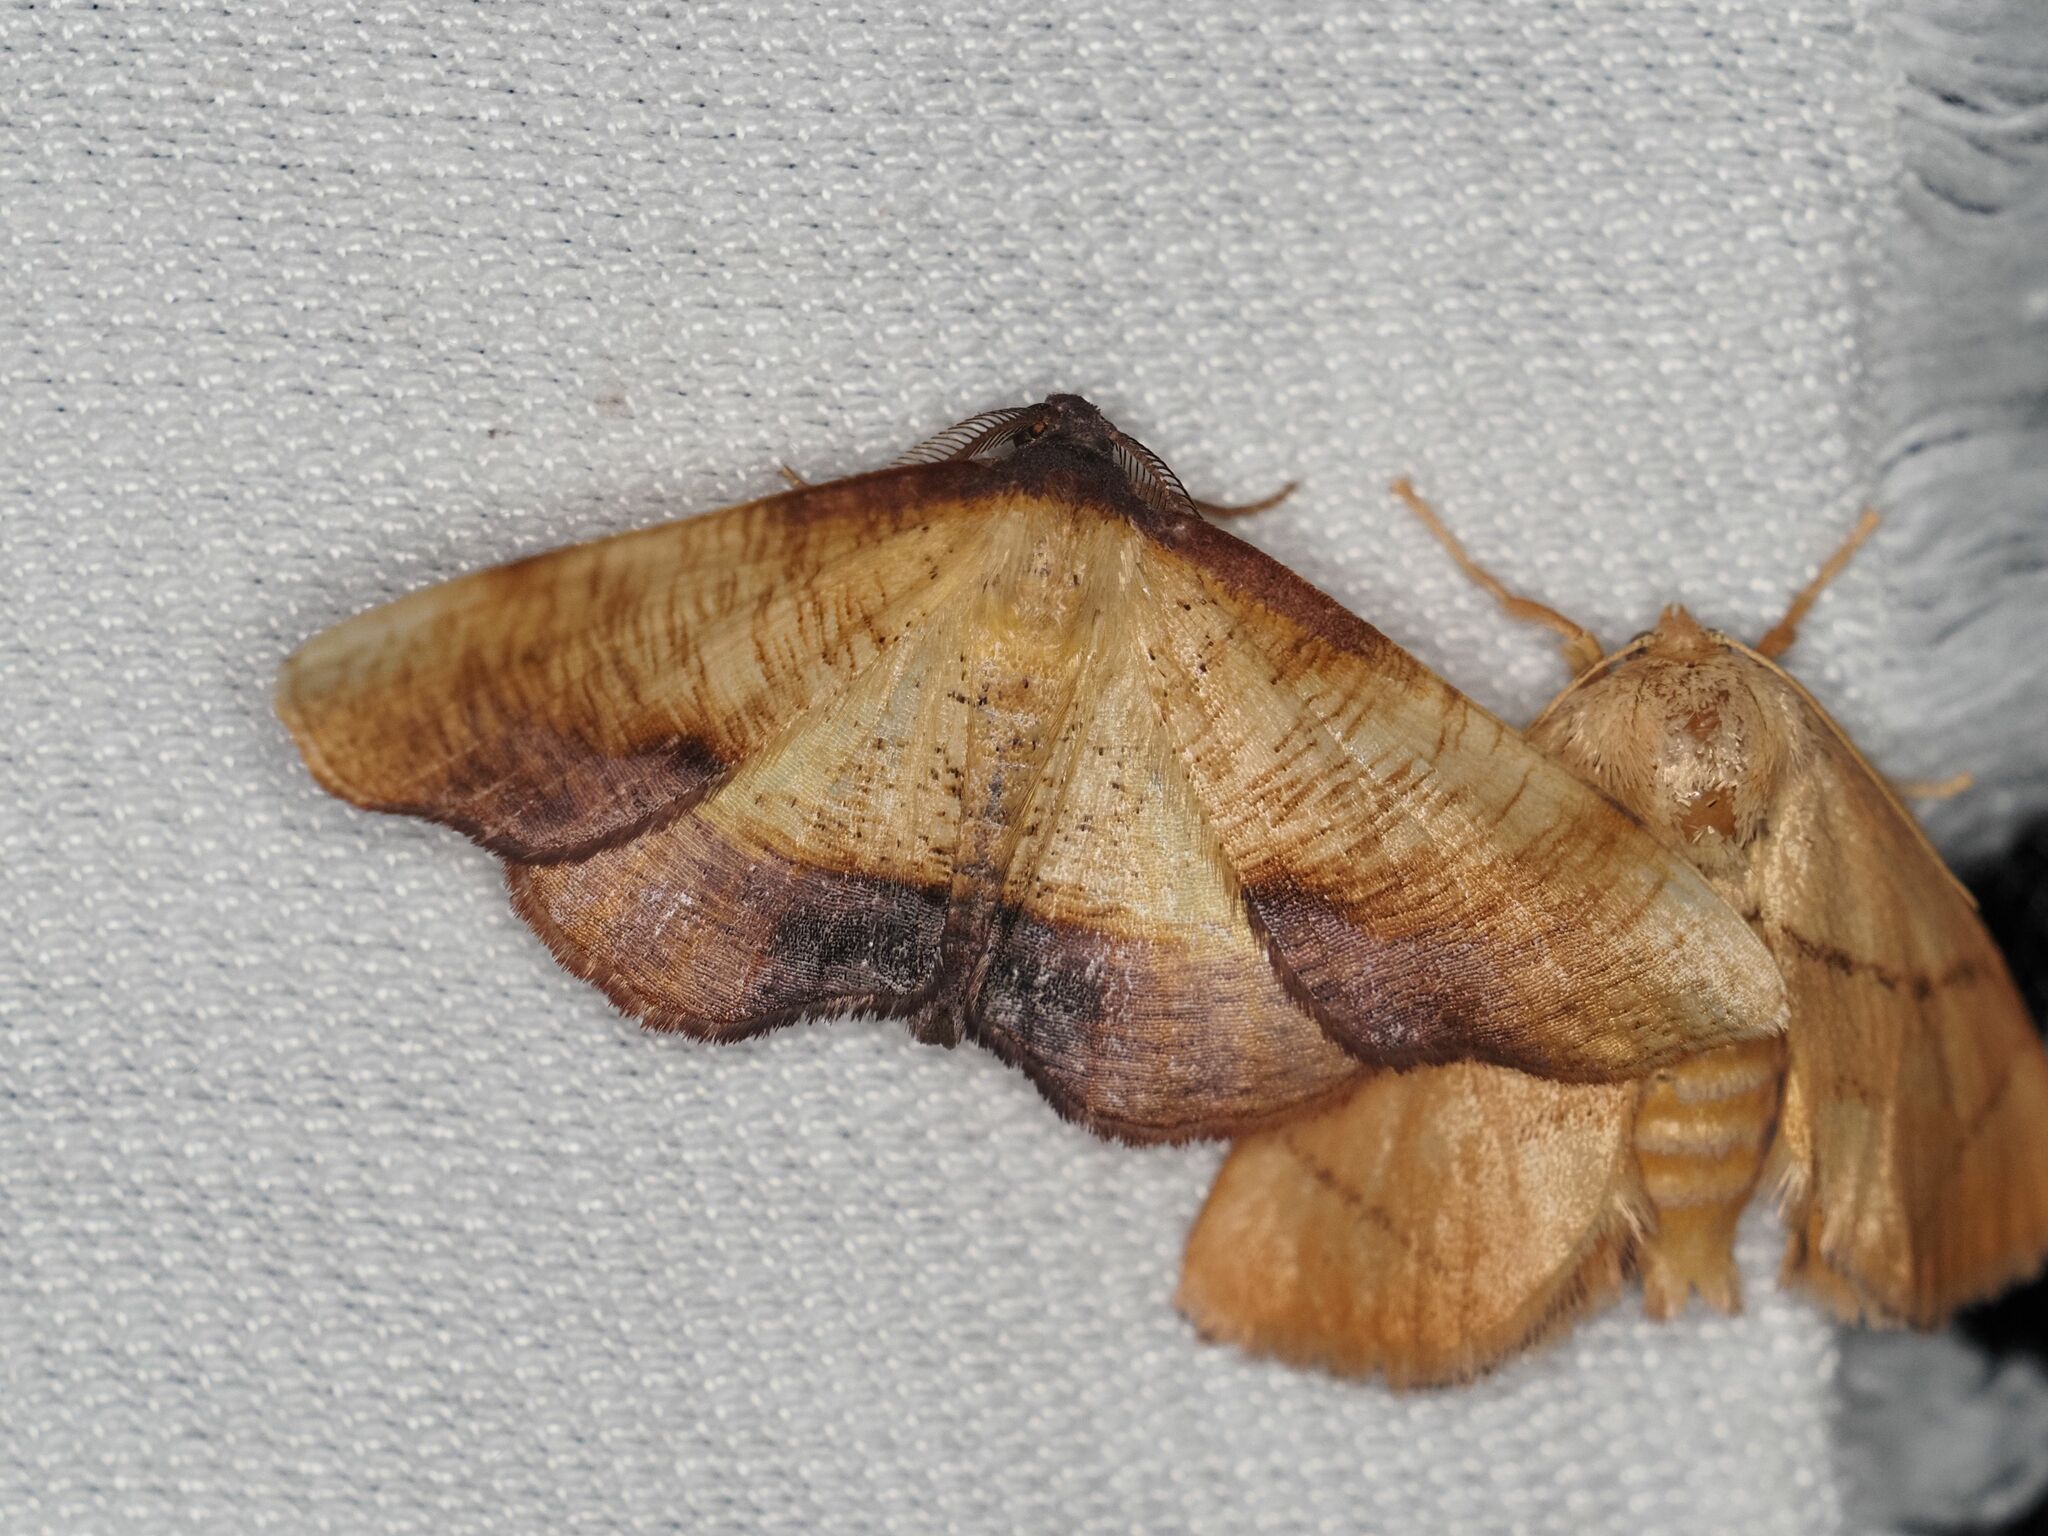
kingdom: Animalia
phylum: Arthropoda
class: Insecta
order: Lepidoptera
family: Geometridae
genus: Plagodis
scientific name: Plagodis dolabraria
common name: Scorched wing
